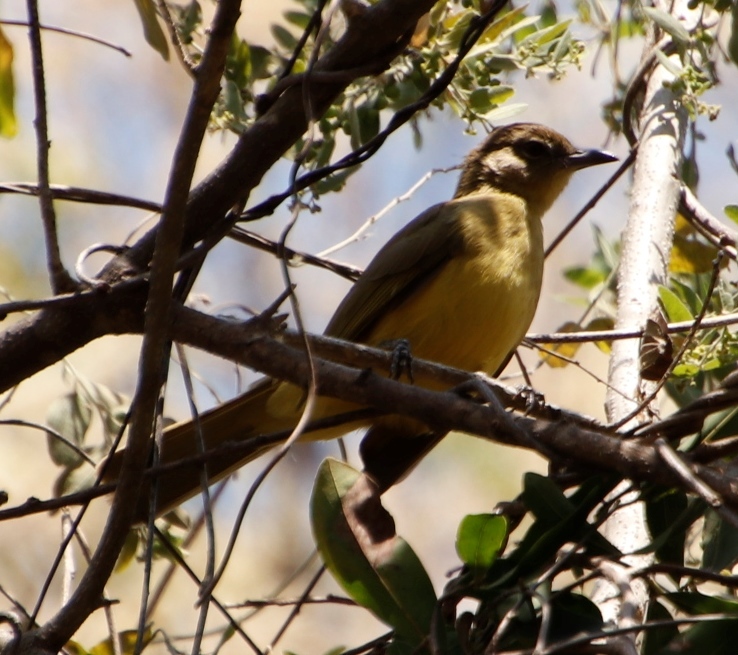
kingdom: Animalia
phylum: Chordata
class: Aves
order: Passeriformes
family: Pycnonotidae
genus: Chlorocichla
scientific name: Chlorocichla flaviventris
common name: Yellow-bellied greenbul
